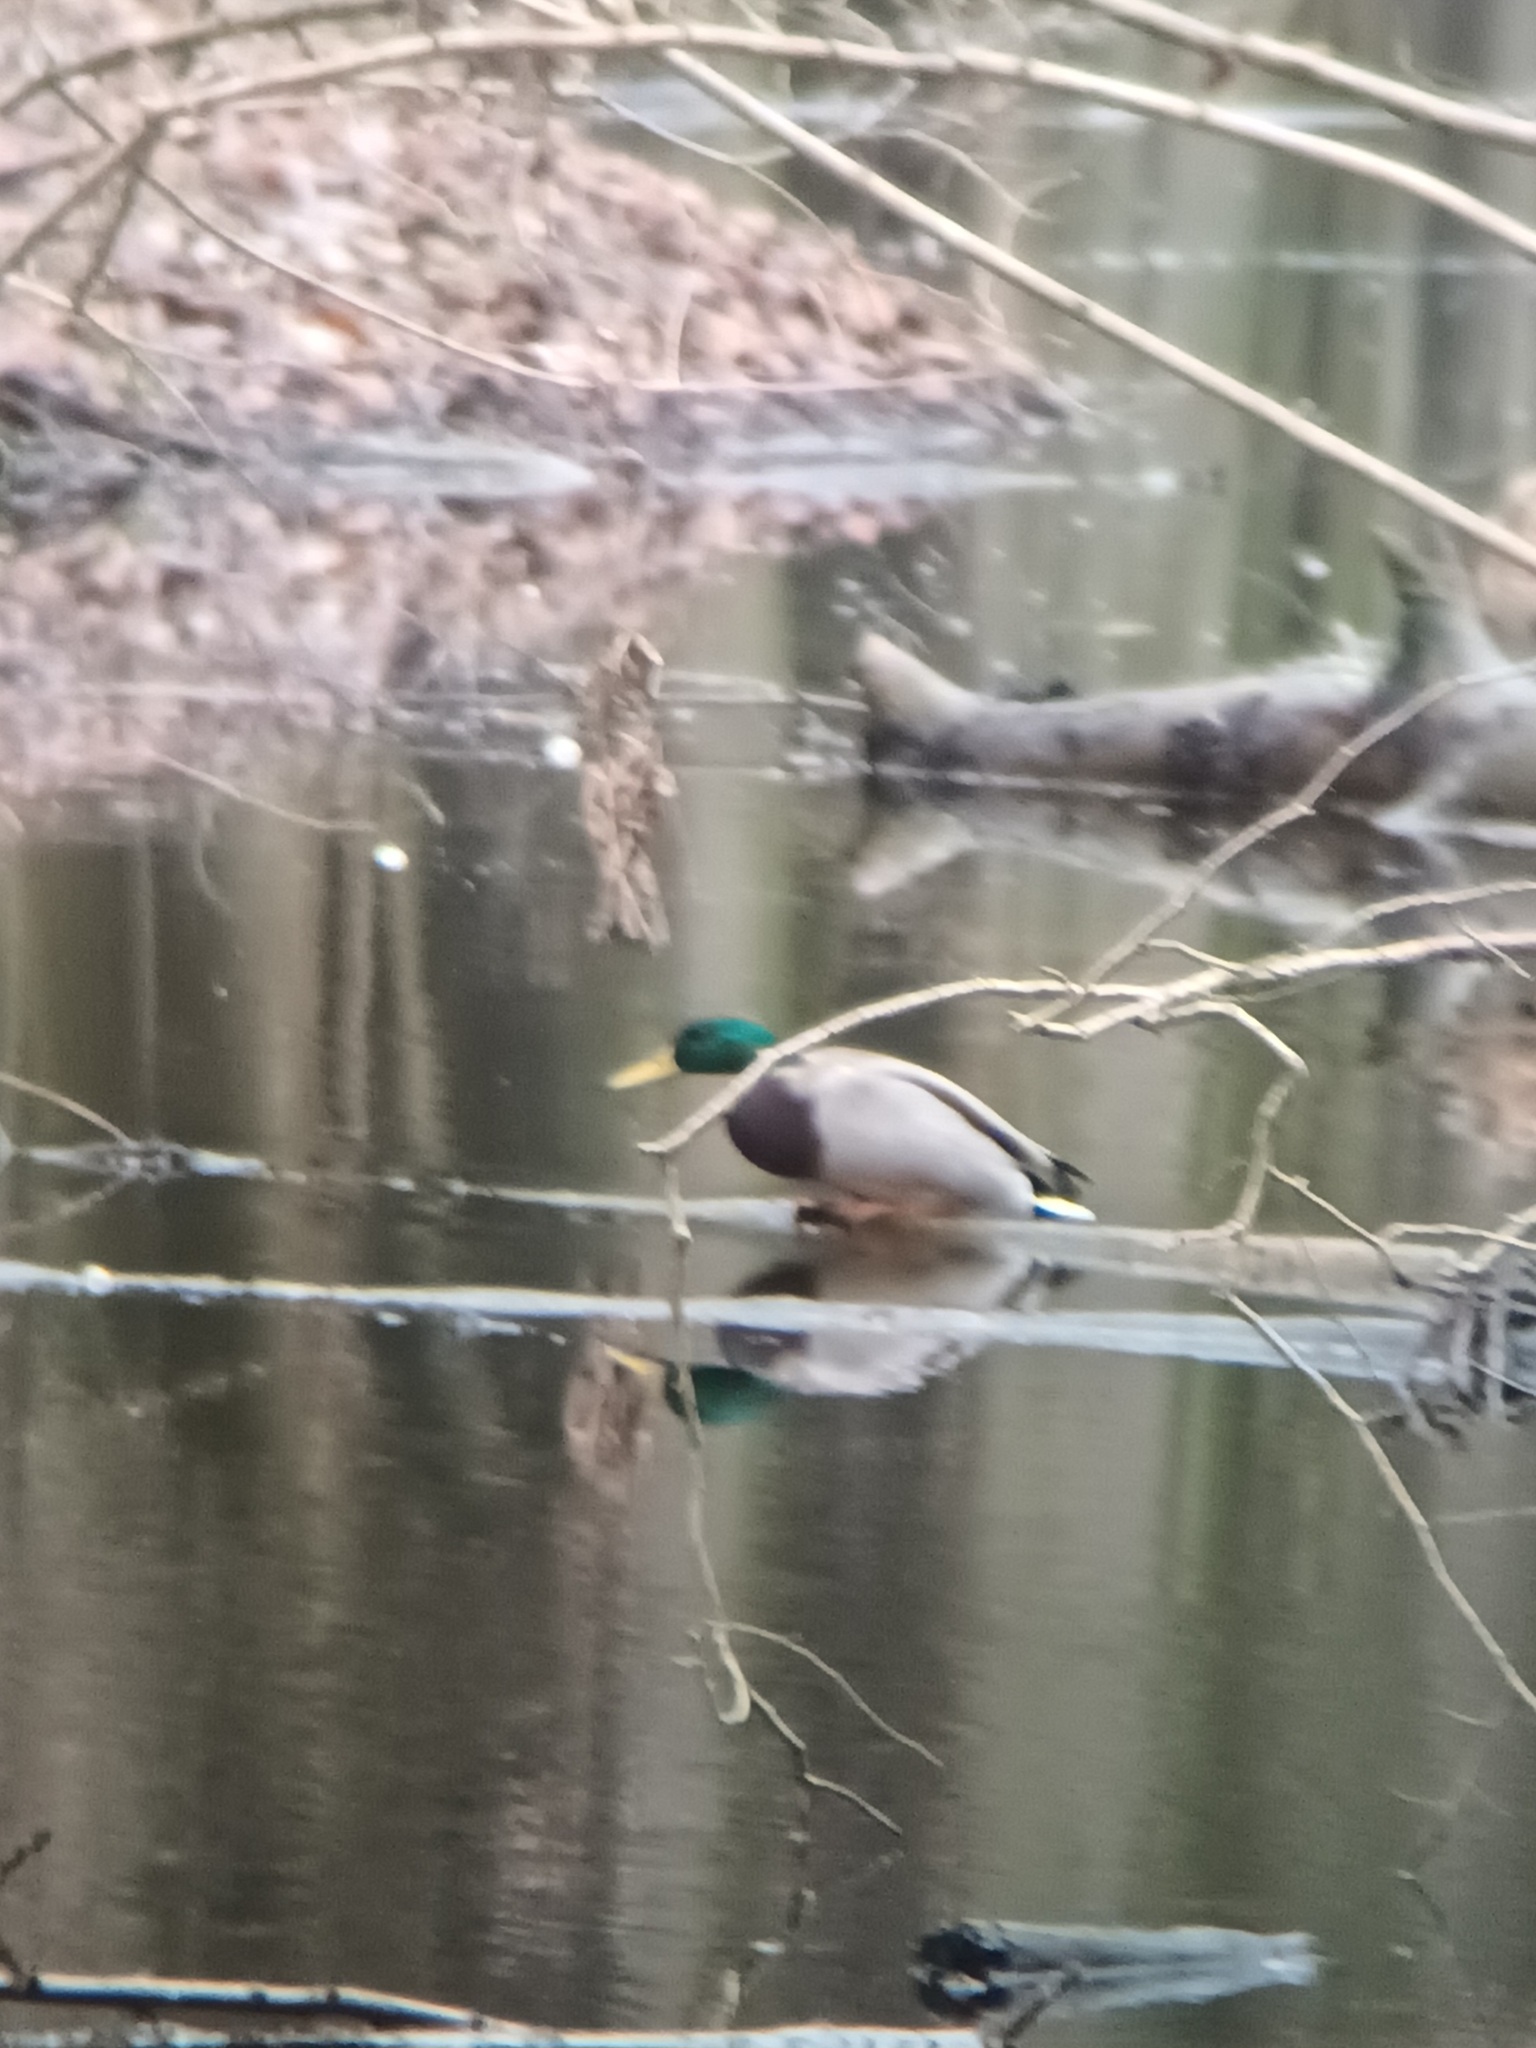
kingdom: Animalia
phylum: Chordata
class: Aves
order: Anseriformes
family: Anatidae
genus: Anas
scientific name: Anas platyrhynchos
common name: Mallard
